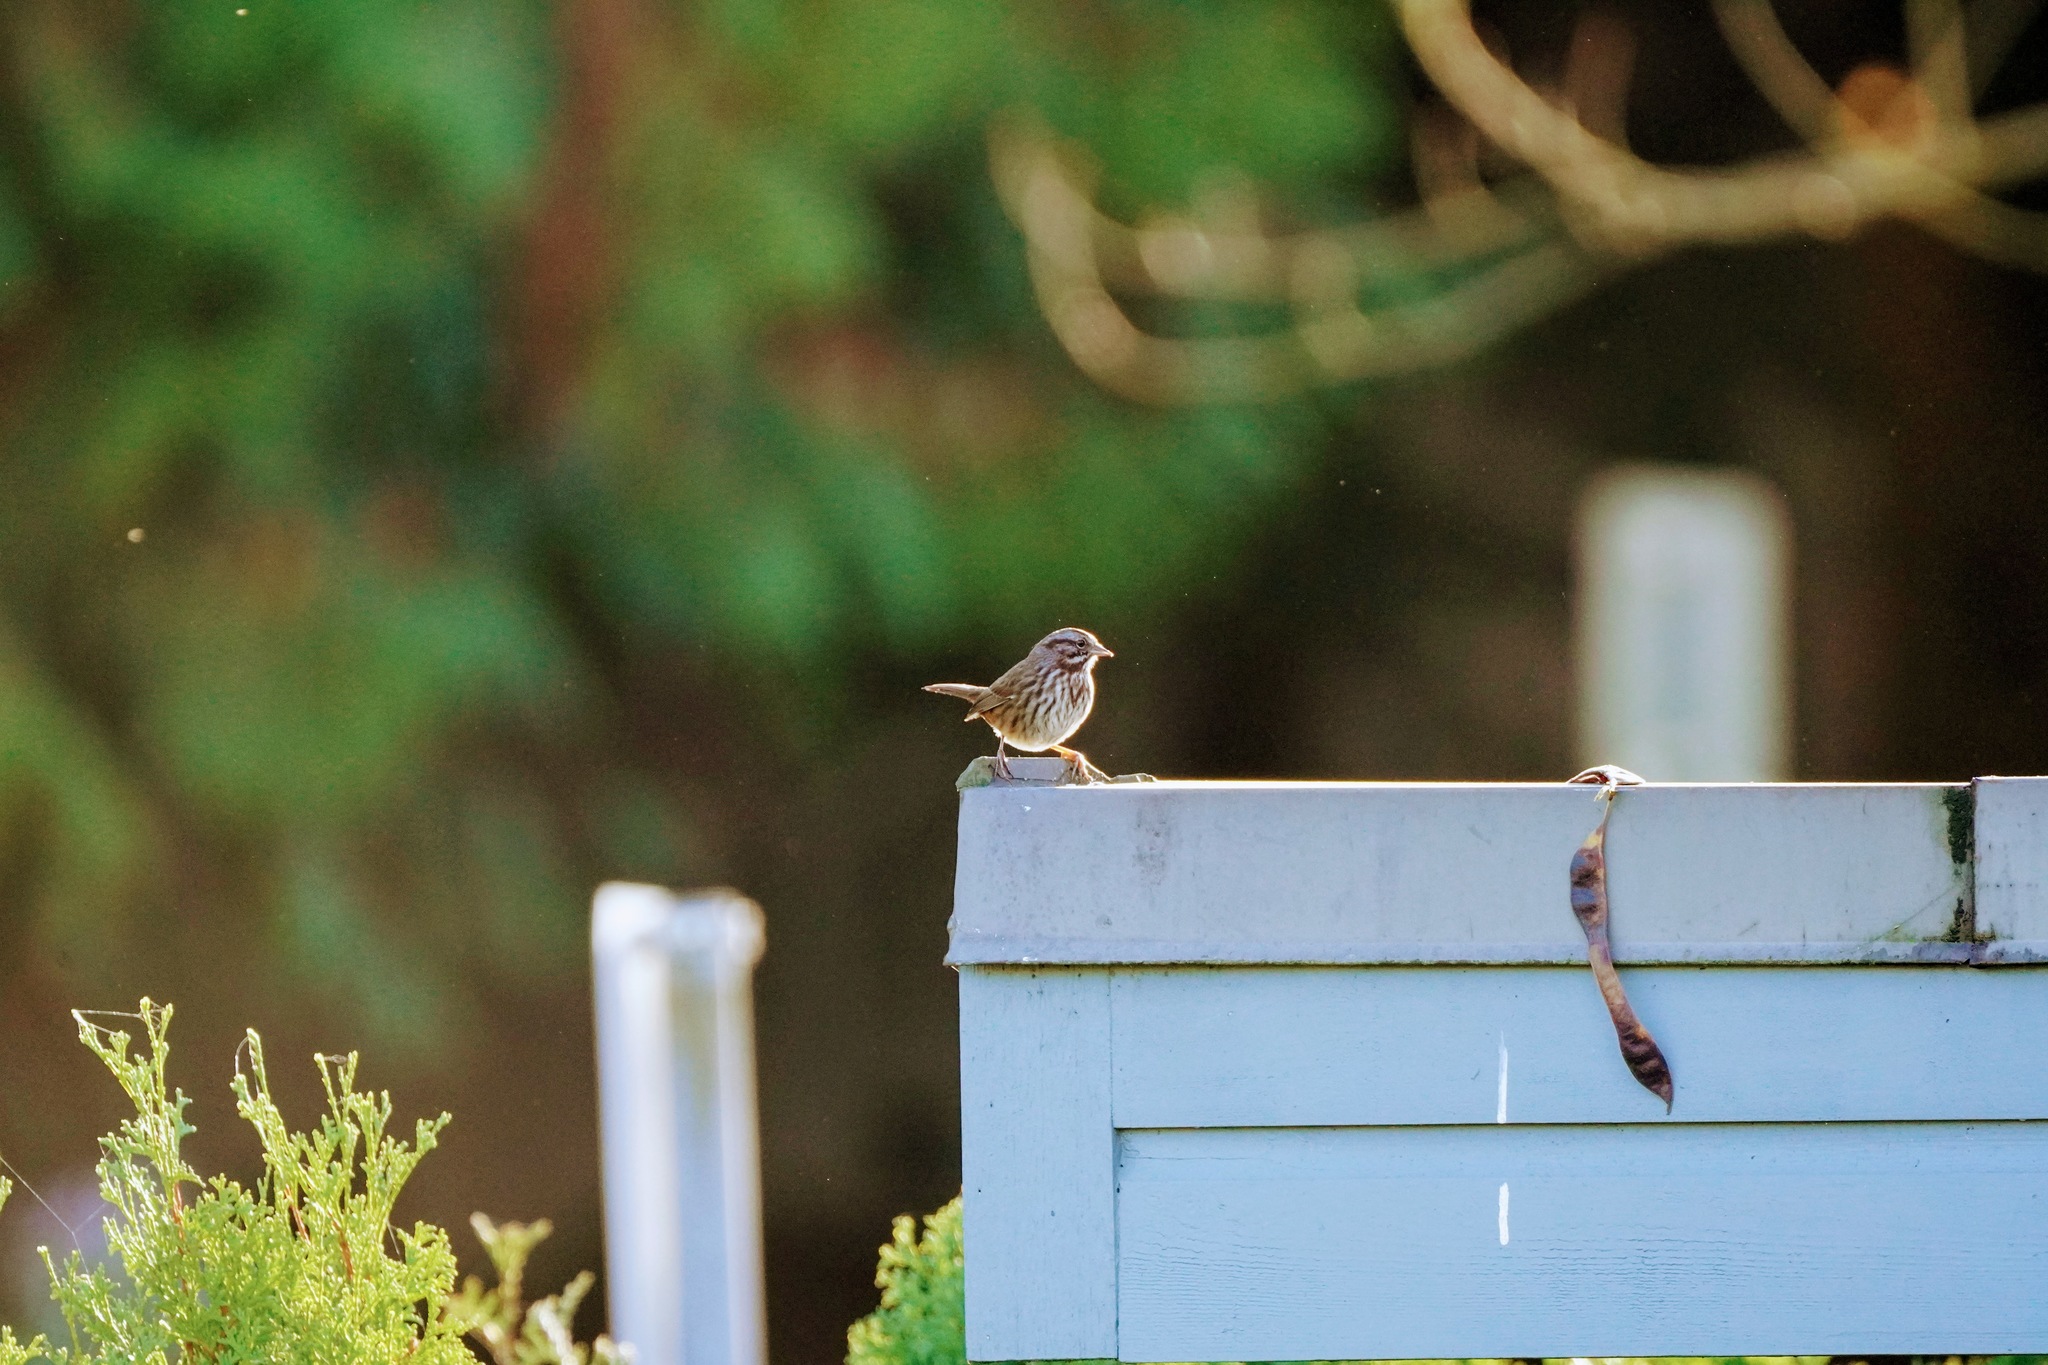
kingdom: Animalia
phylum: Chordata
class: Aves
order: Passeriformes
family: Passerellidae
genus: Melospiza
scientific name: Melospiza melodia
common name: Song sparrow
